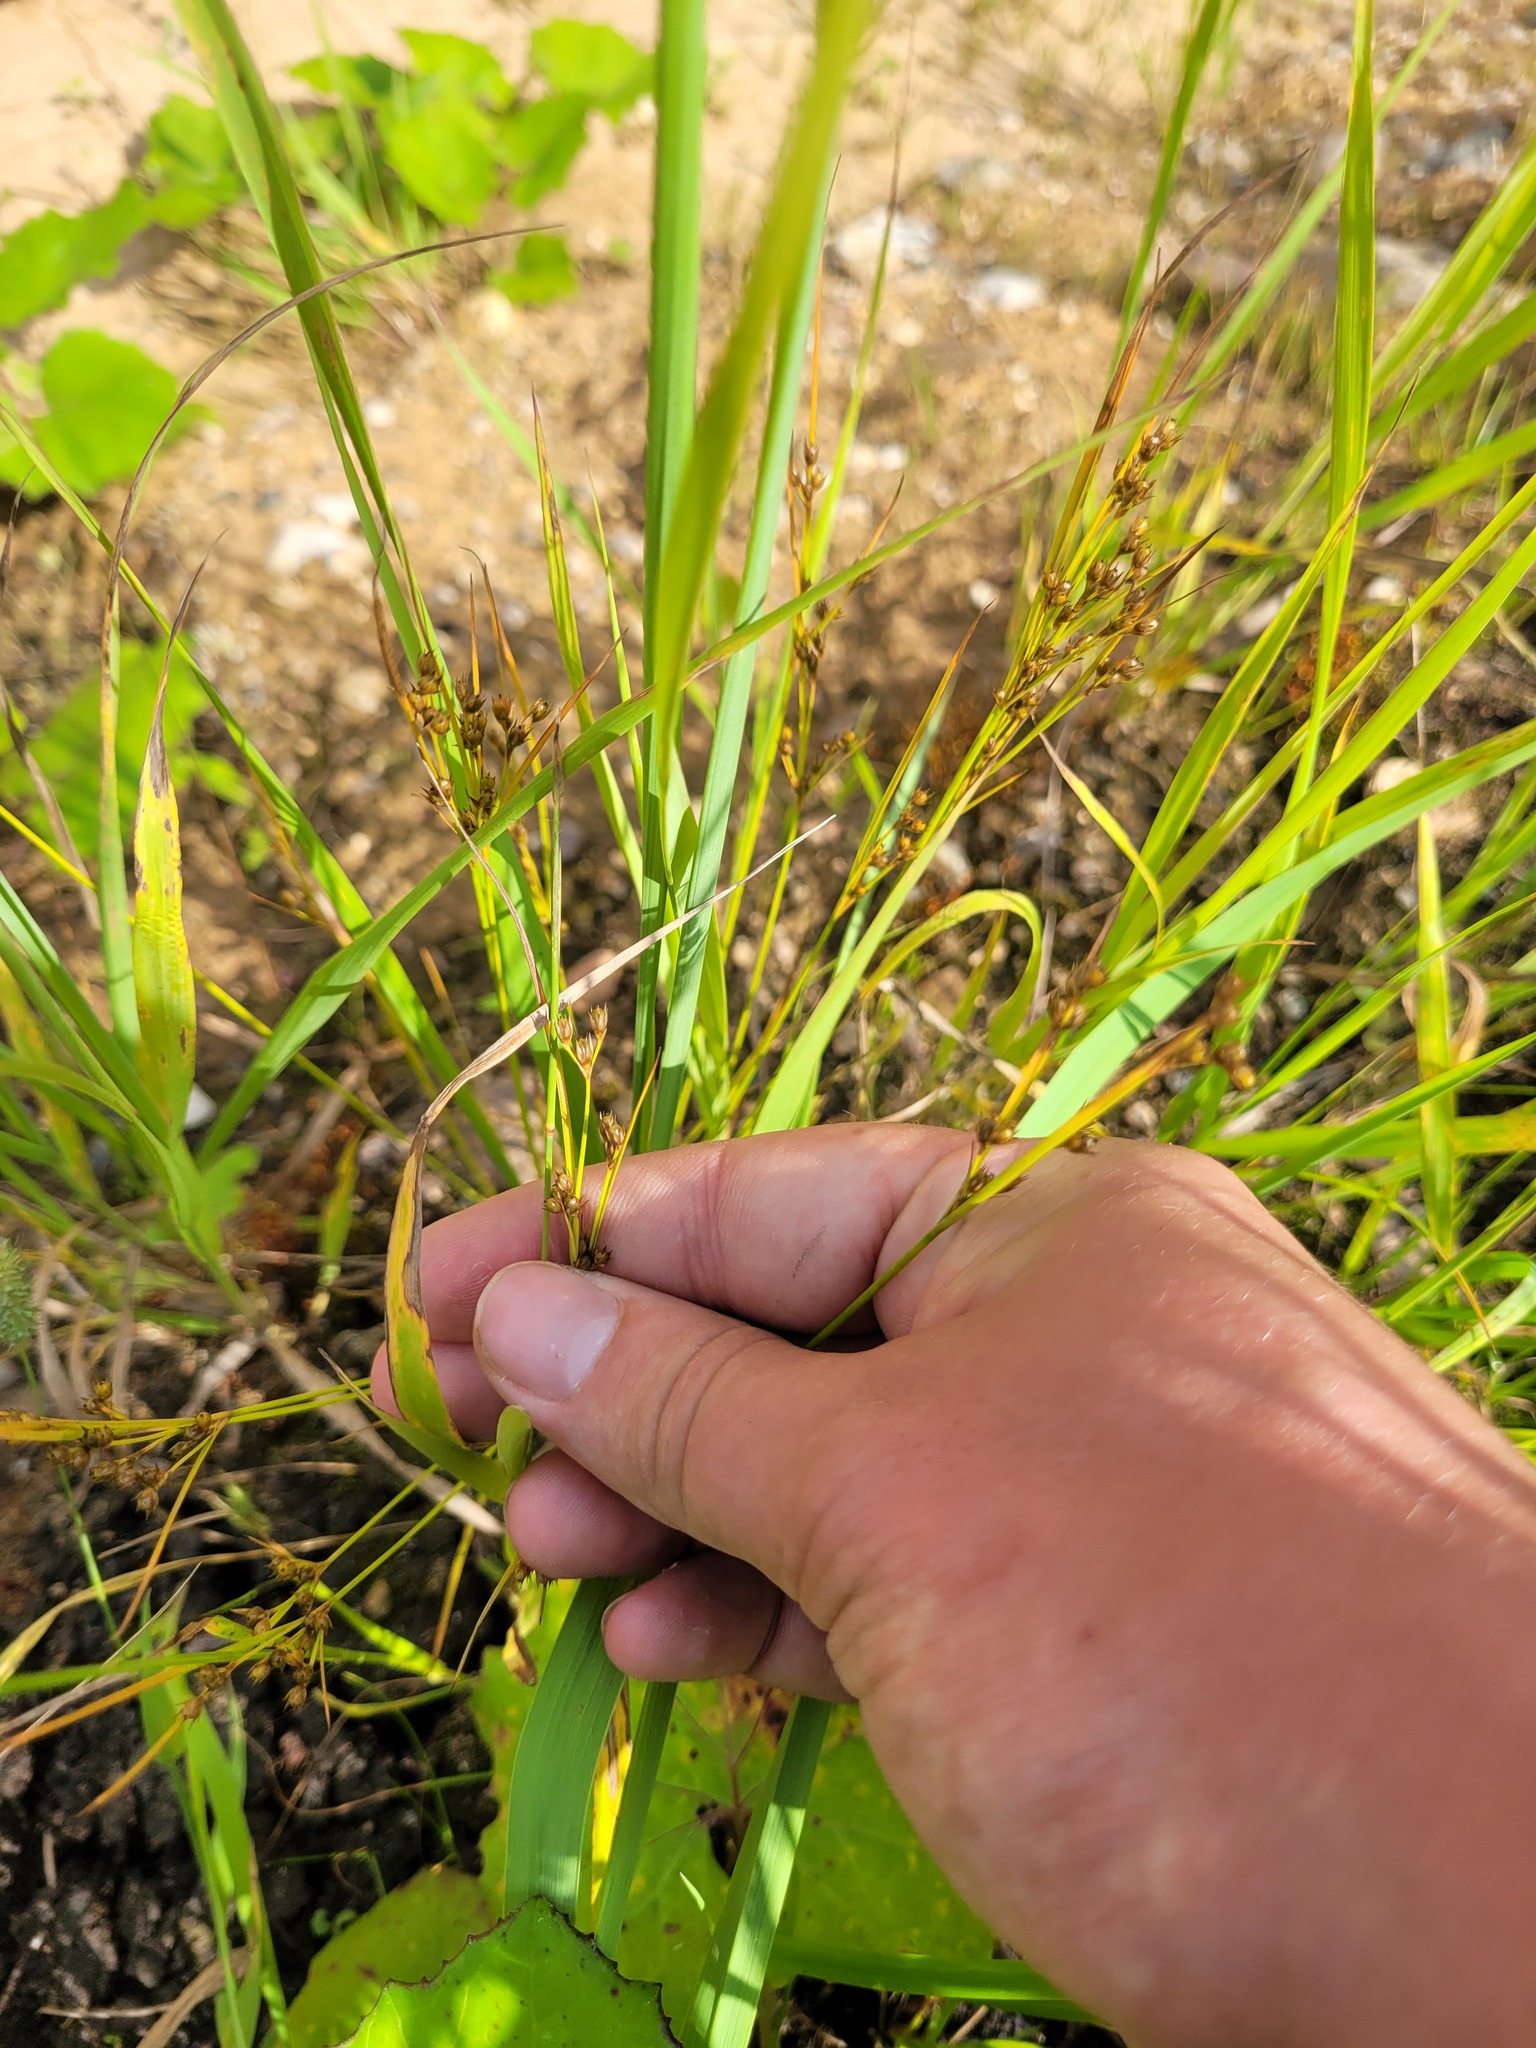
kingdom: Plantae
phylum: Tracheophyta
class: Liliopsida
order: Poales
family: Juncaceae
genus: Juncus
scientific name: Juncus tenuis
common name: Slender rush
